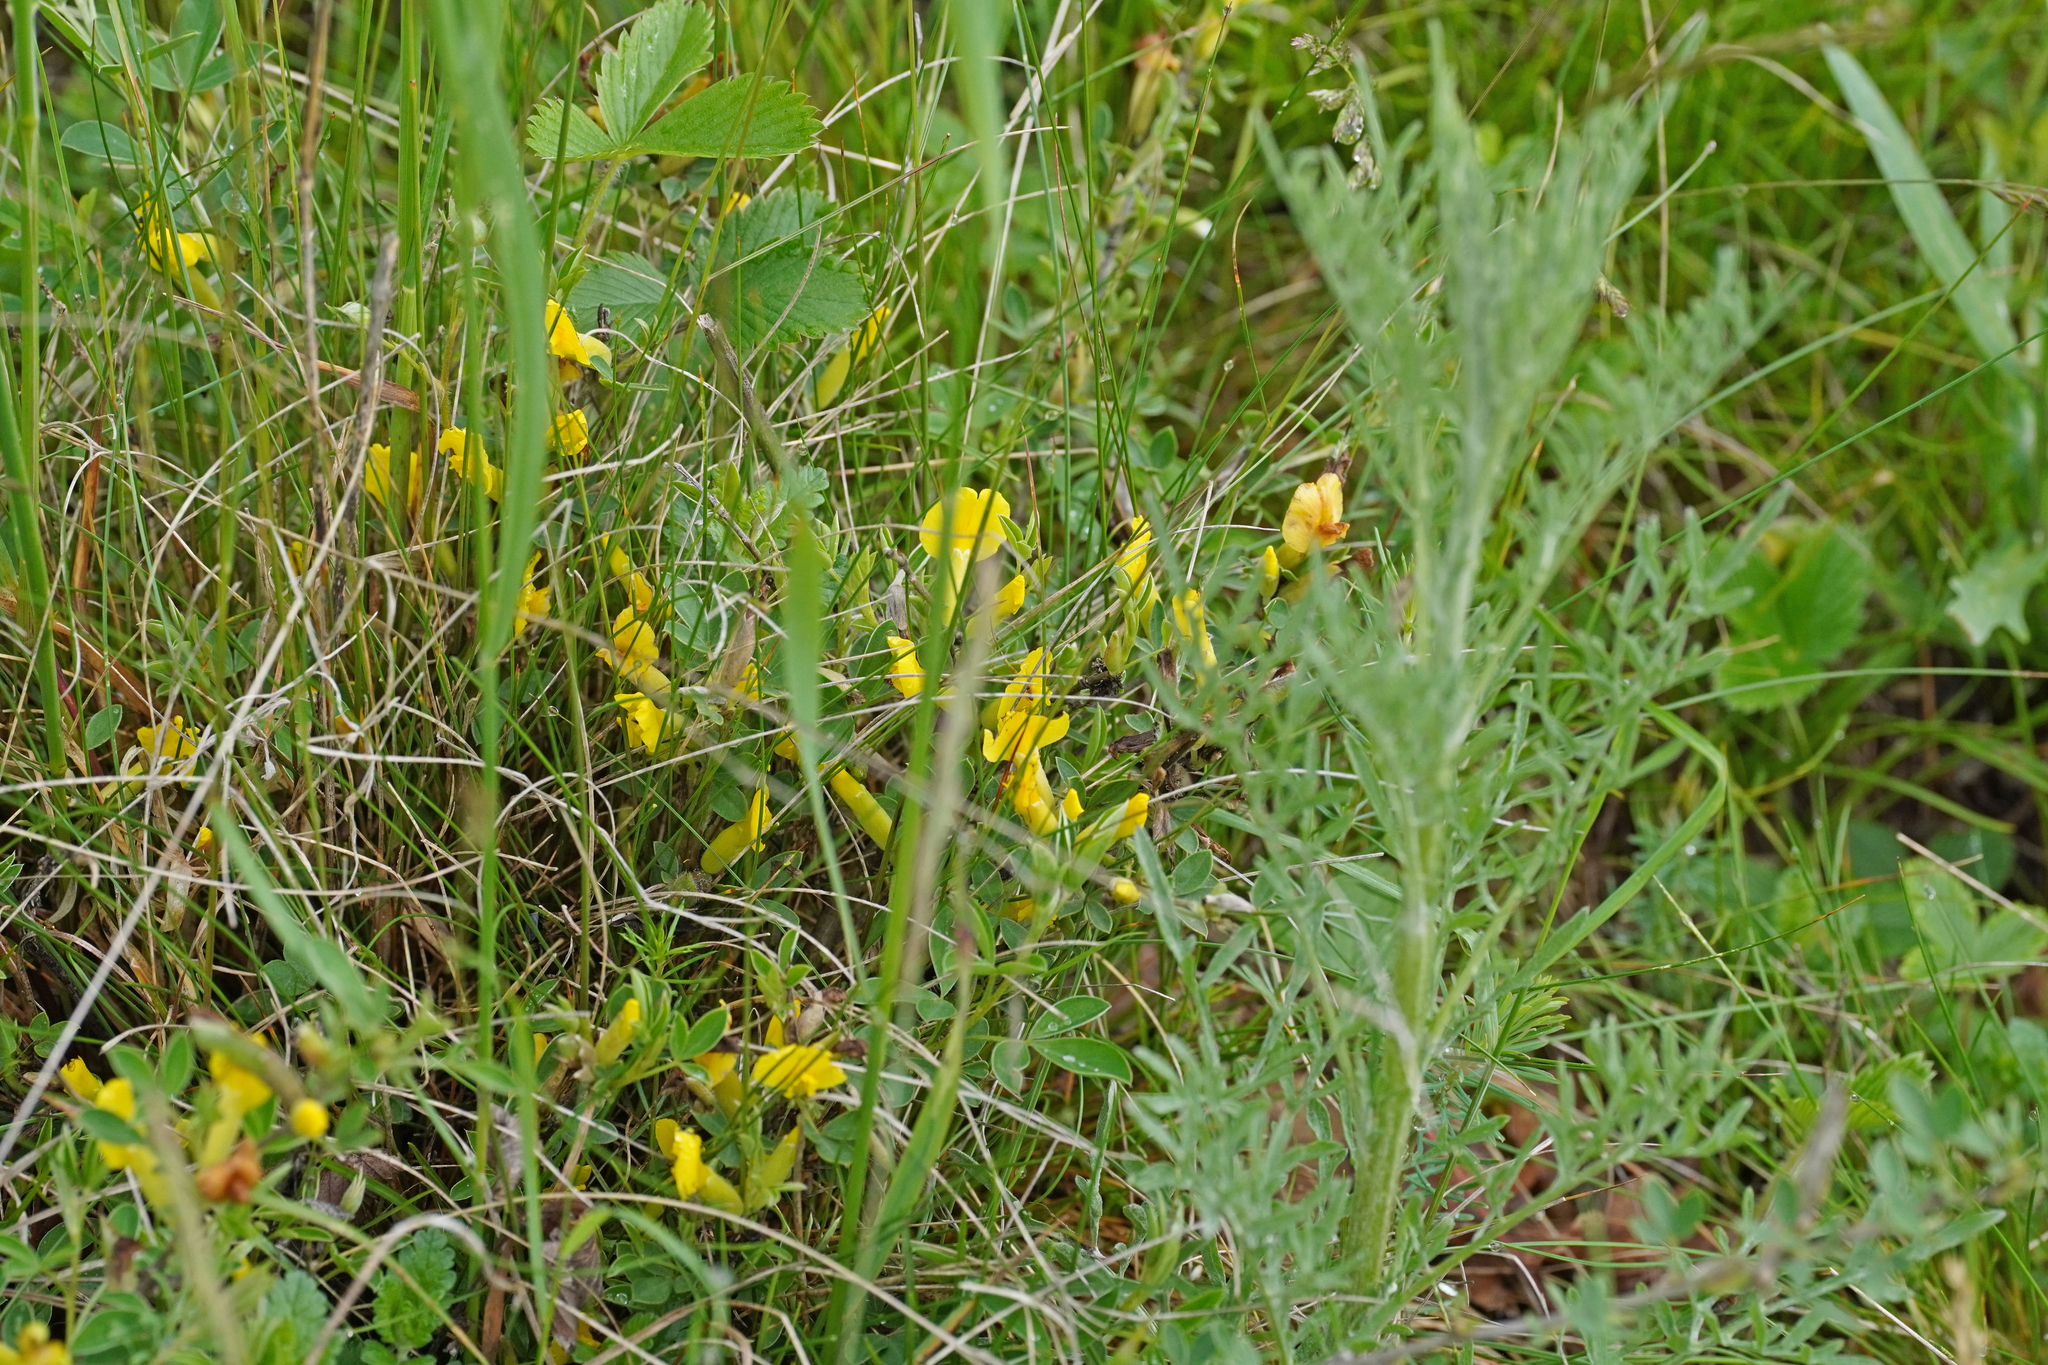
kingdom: Plantae
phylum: Tracheophyta
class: Magnoliopsida
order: Fabales
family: Fabaceae
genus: Chamaecytisus
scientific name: Chamaecytisus ratisbonensis
